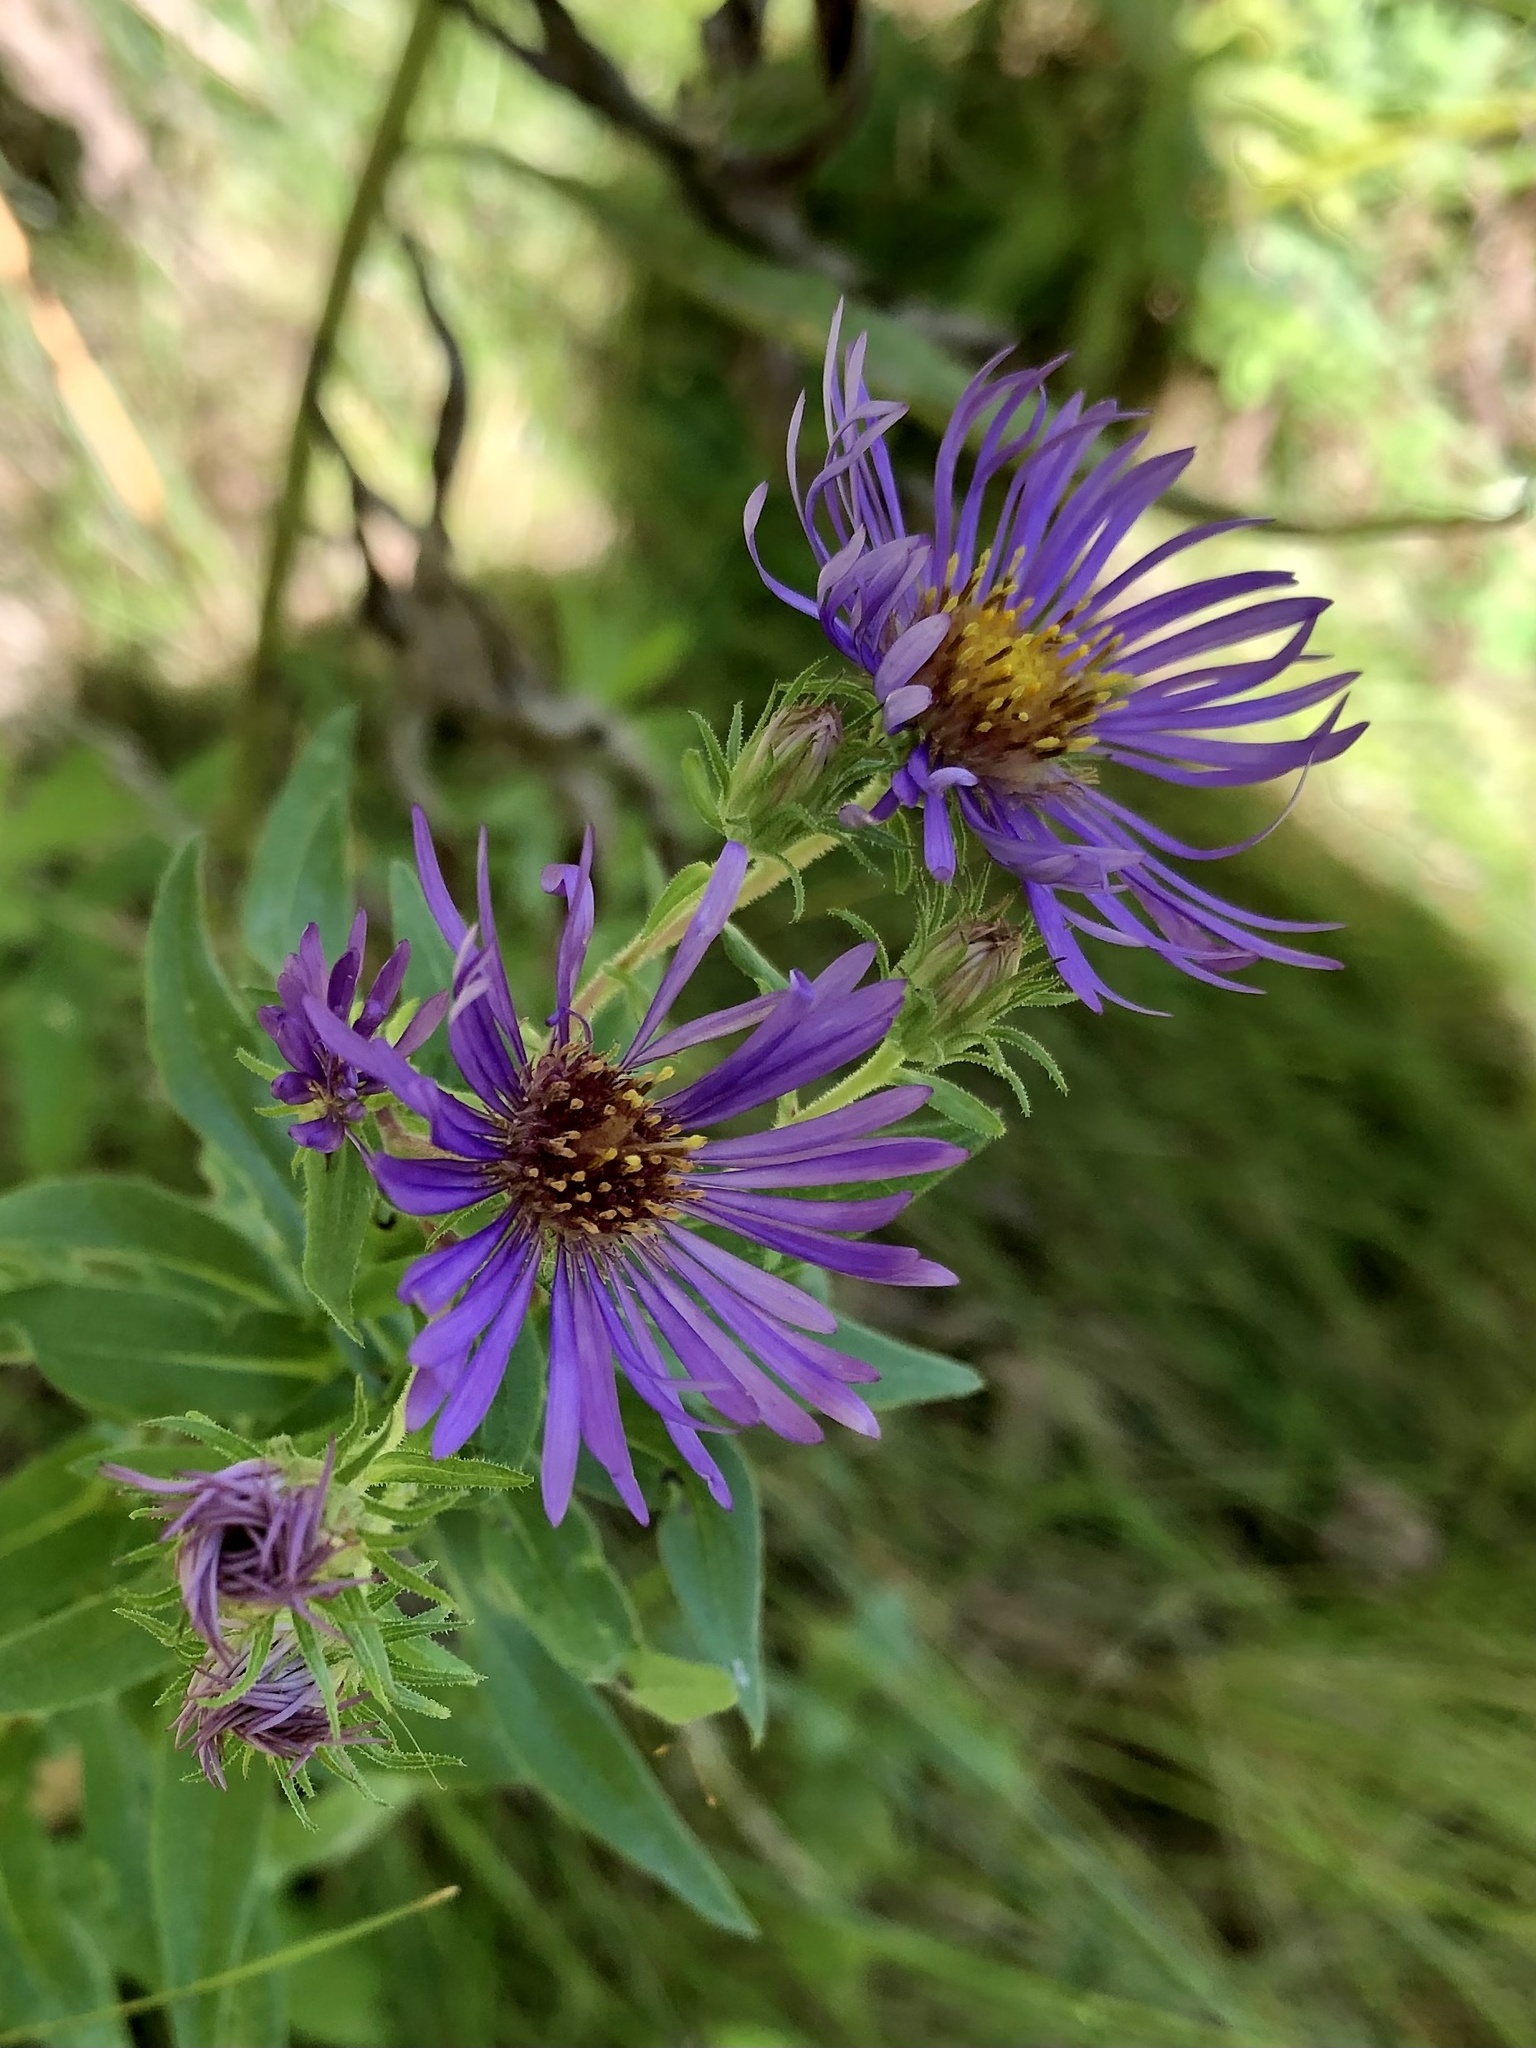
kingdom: Plantae
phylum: Tracheophyta
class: Magnoliopsida
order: Asterales
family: Asteraceae
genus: Symphyotrichum
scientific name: Symphyotrichum novae-angliae
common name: Michaelmas daisy
